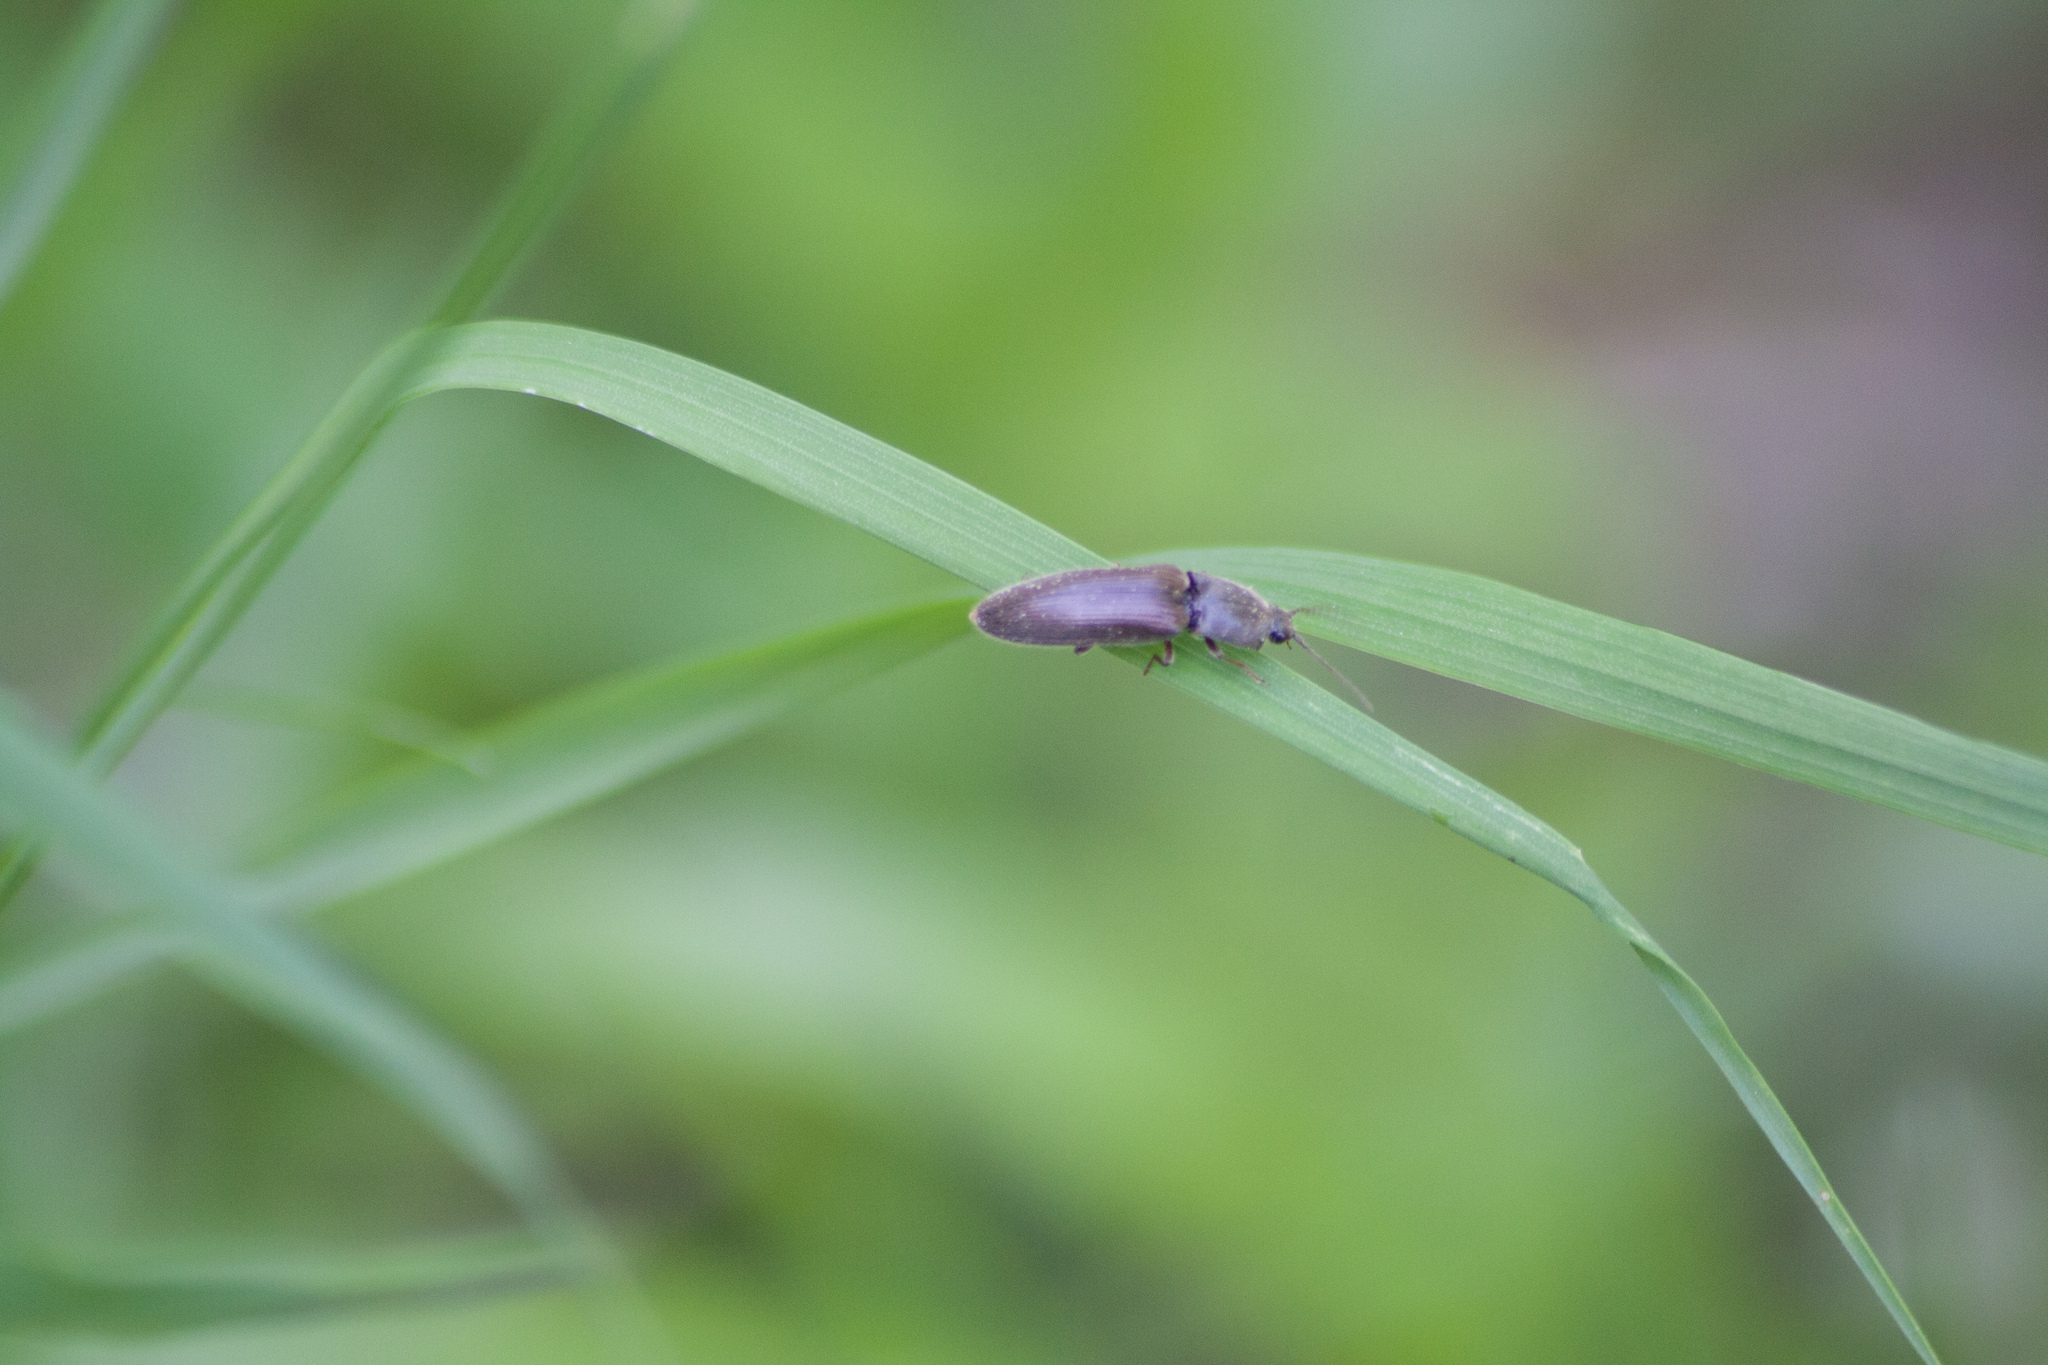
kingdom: Animalia
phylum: Arthropoda
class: Insecta
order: Coleoptera
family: Elateridae
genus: Athous
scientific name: Athous haemorrhoidalis
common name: Red-brown click beetle
